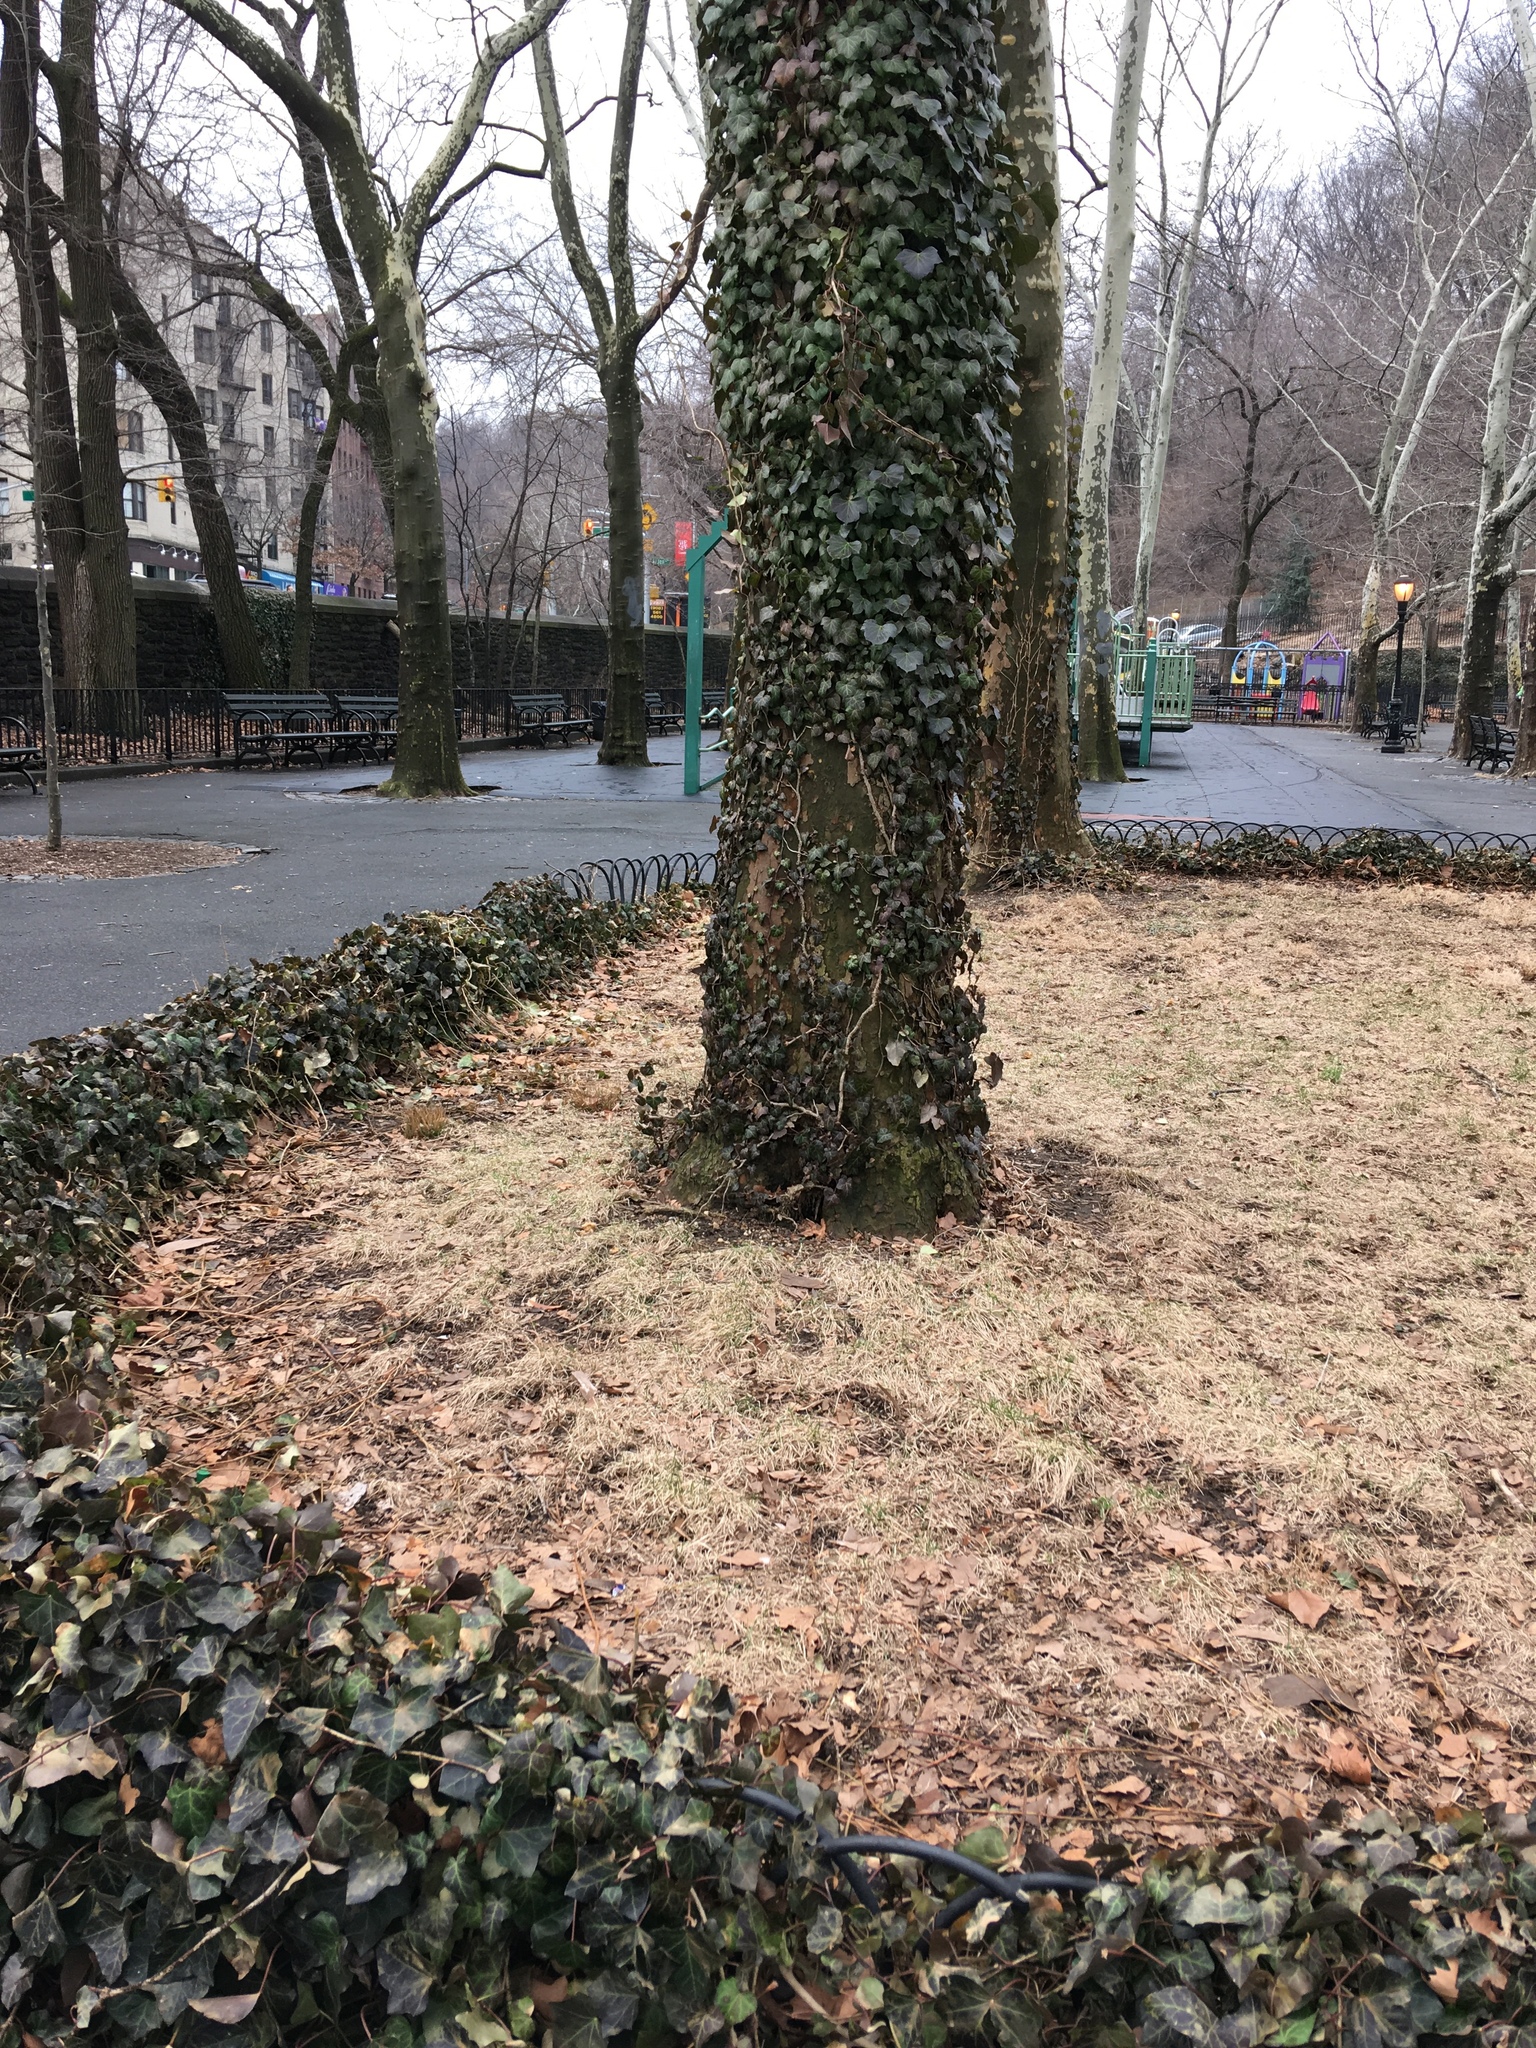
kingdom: Plantae
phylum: Tracheophyta
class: Magnoliopsida
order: Apiales
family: Araliaceae
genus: Hedera
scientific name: Hedera helix
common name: Ivy
